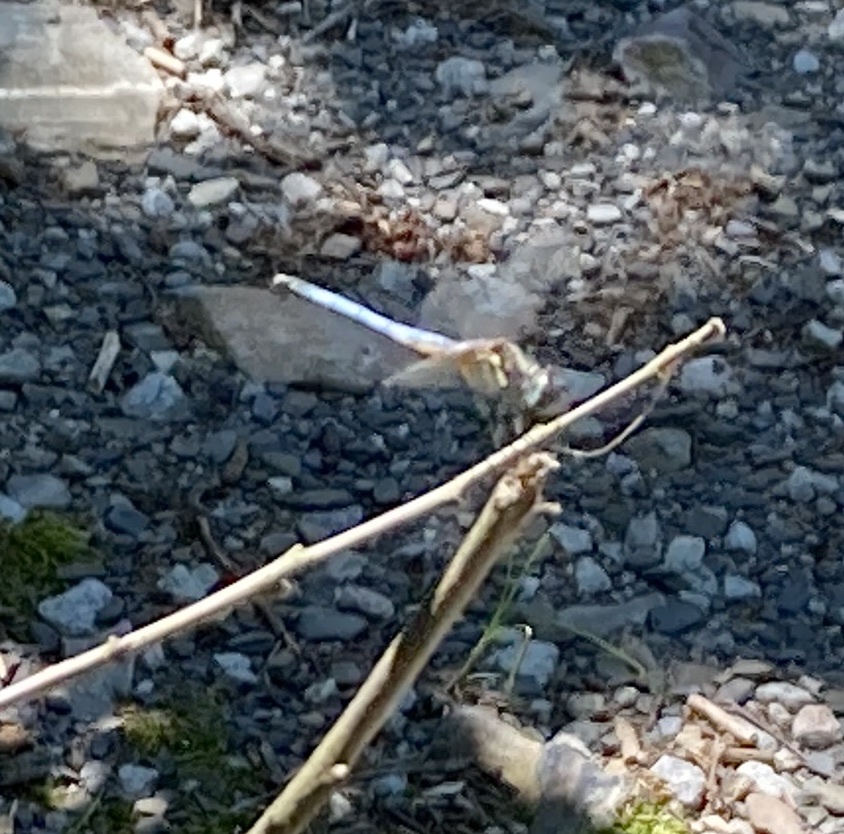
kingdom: Animalia
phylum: Arthropoda
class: Insecta
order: Odonata
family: Libellulidae
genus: Pachydiplax
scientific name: Pachydiplax longipennis
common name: Blue dasher
